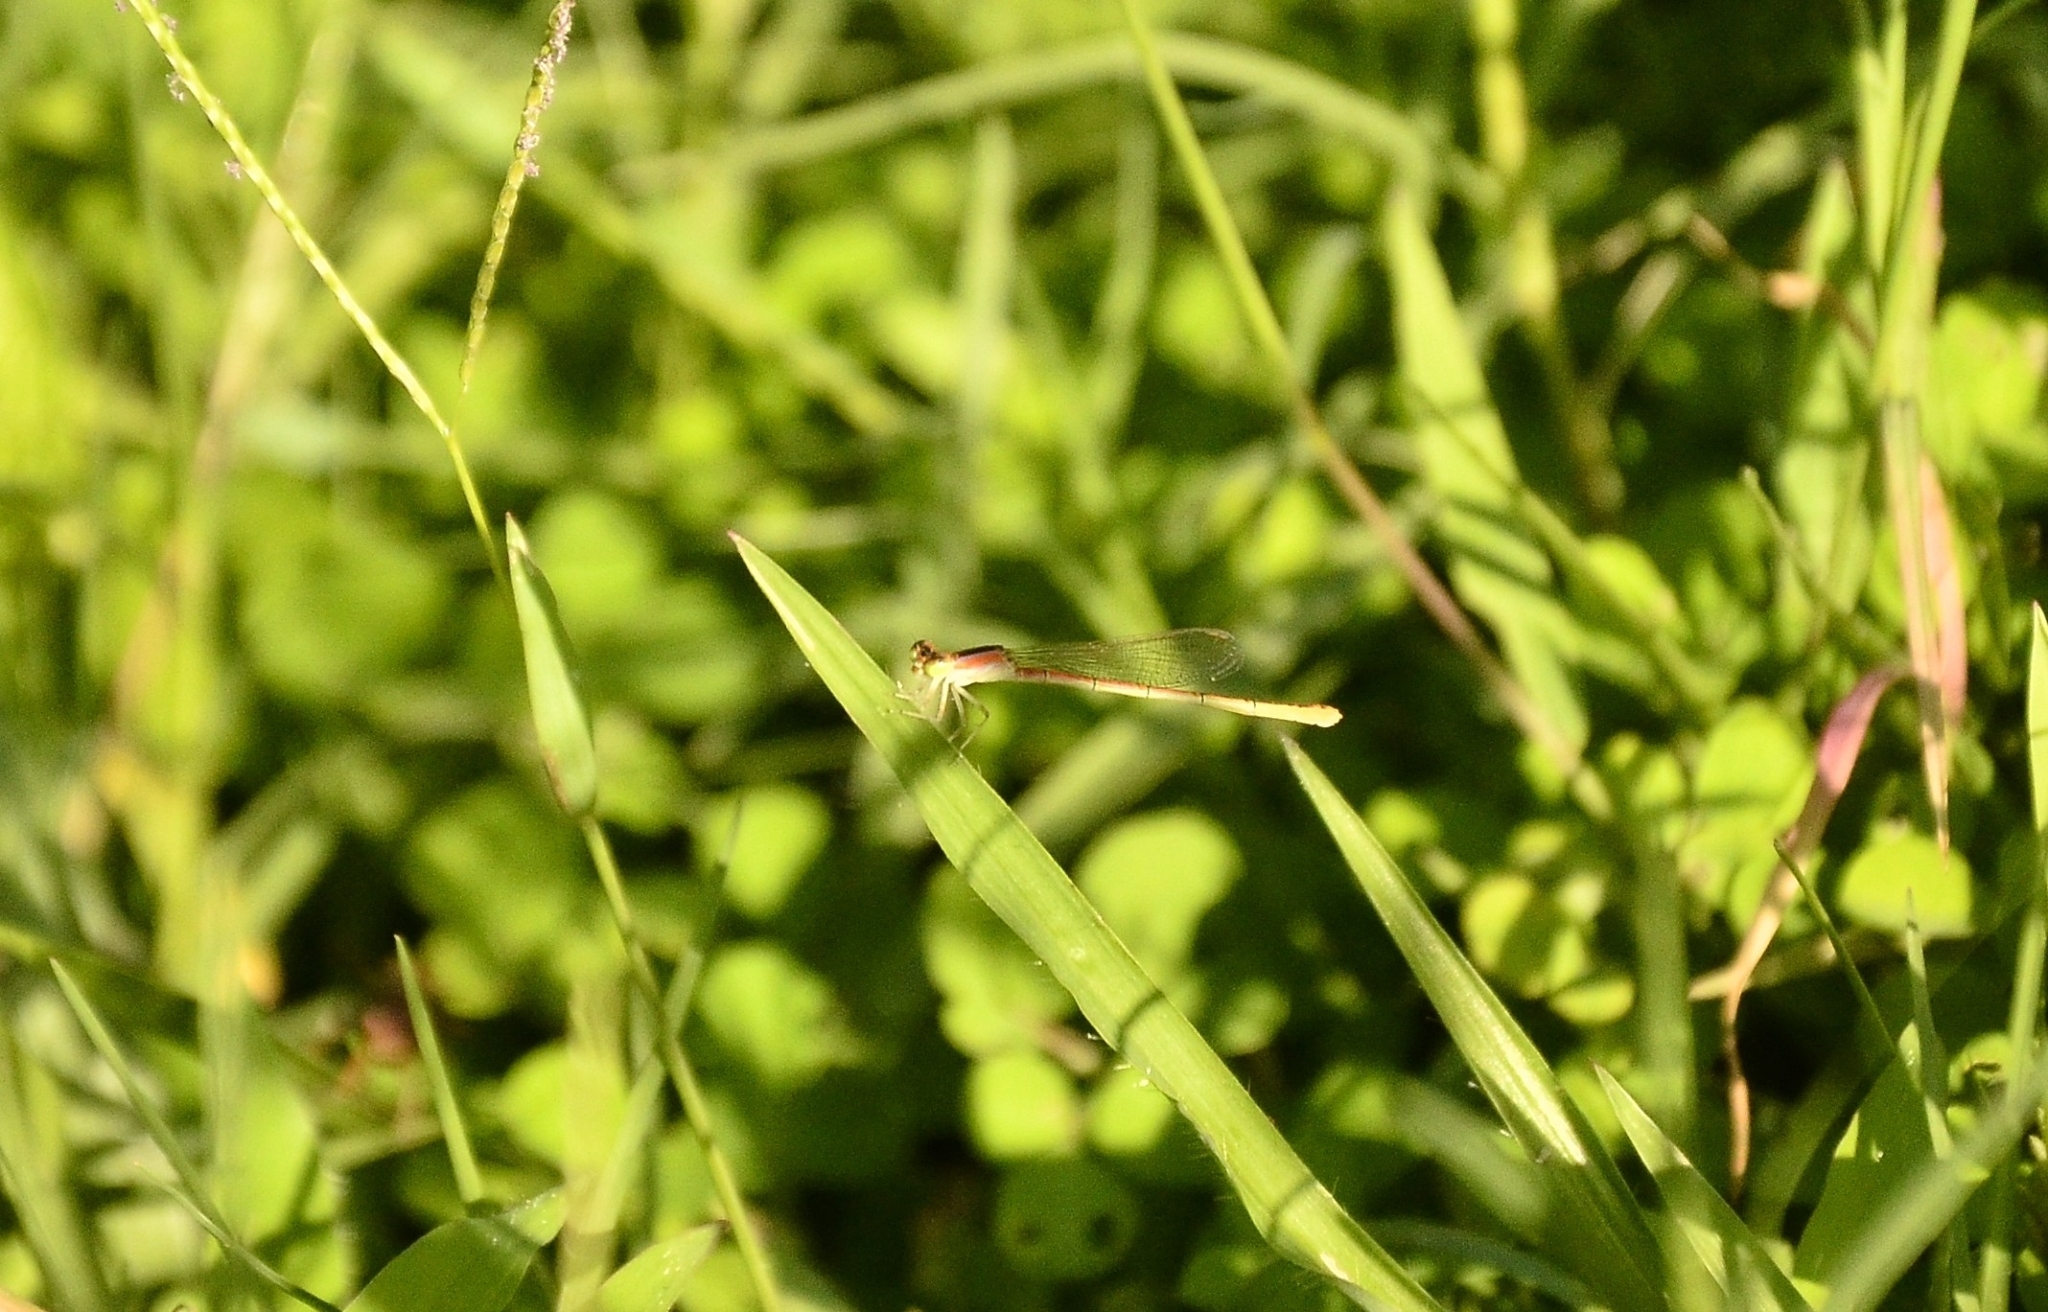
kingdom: Animalia
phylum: Arthropoda
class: Insecta
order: Odonata
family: Coenagrionidae
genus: Agriocnemis
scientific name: Agriocnemis pygmaea
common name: Pygmy wisp
